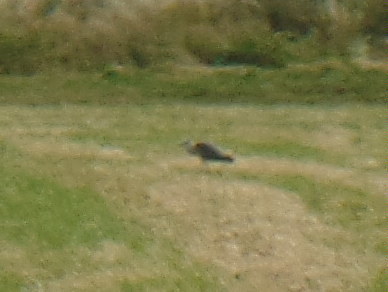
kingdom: Animalia
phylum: Chordata
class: Aves
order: Pelecaniformes
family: Ardeidae
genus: Ardea
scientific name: Ardea cinerea
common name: Grey heron
